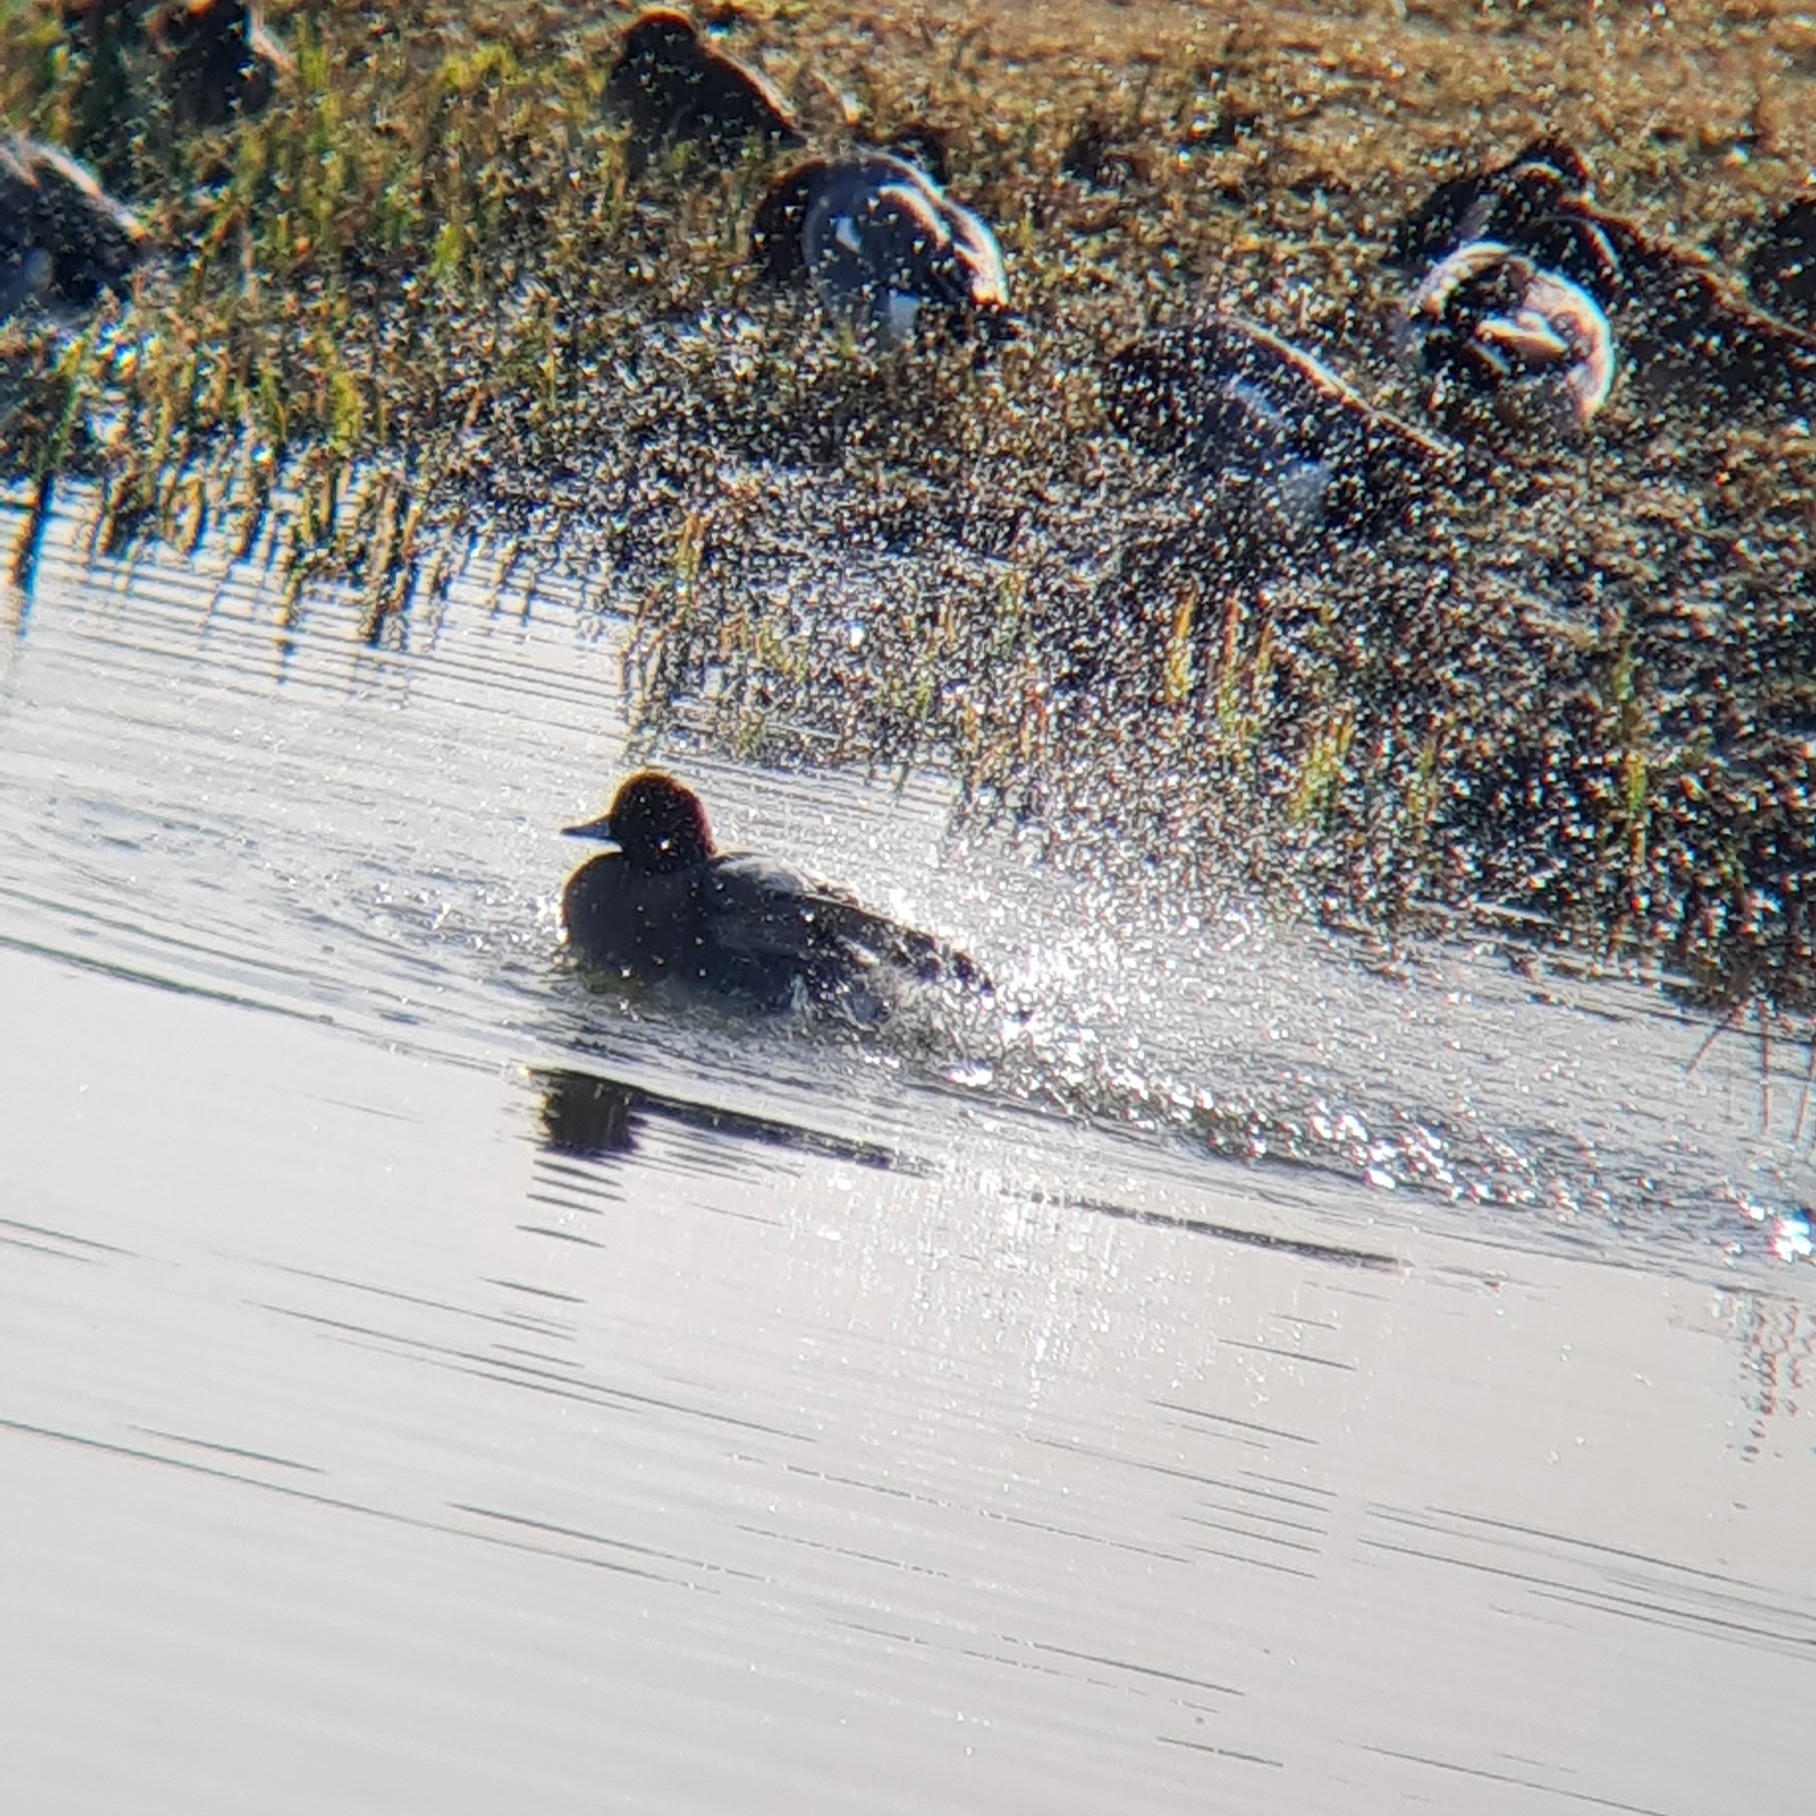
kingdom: Animalia
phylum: Chordata
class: Aves
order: Anseriformes
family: Anatidae
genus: Mareca
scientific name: Mareca penelope
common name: Eurasian wigeon
